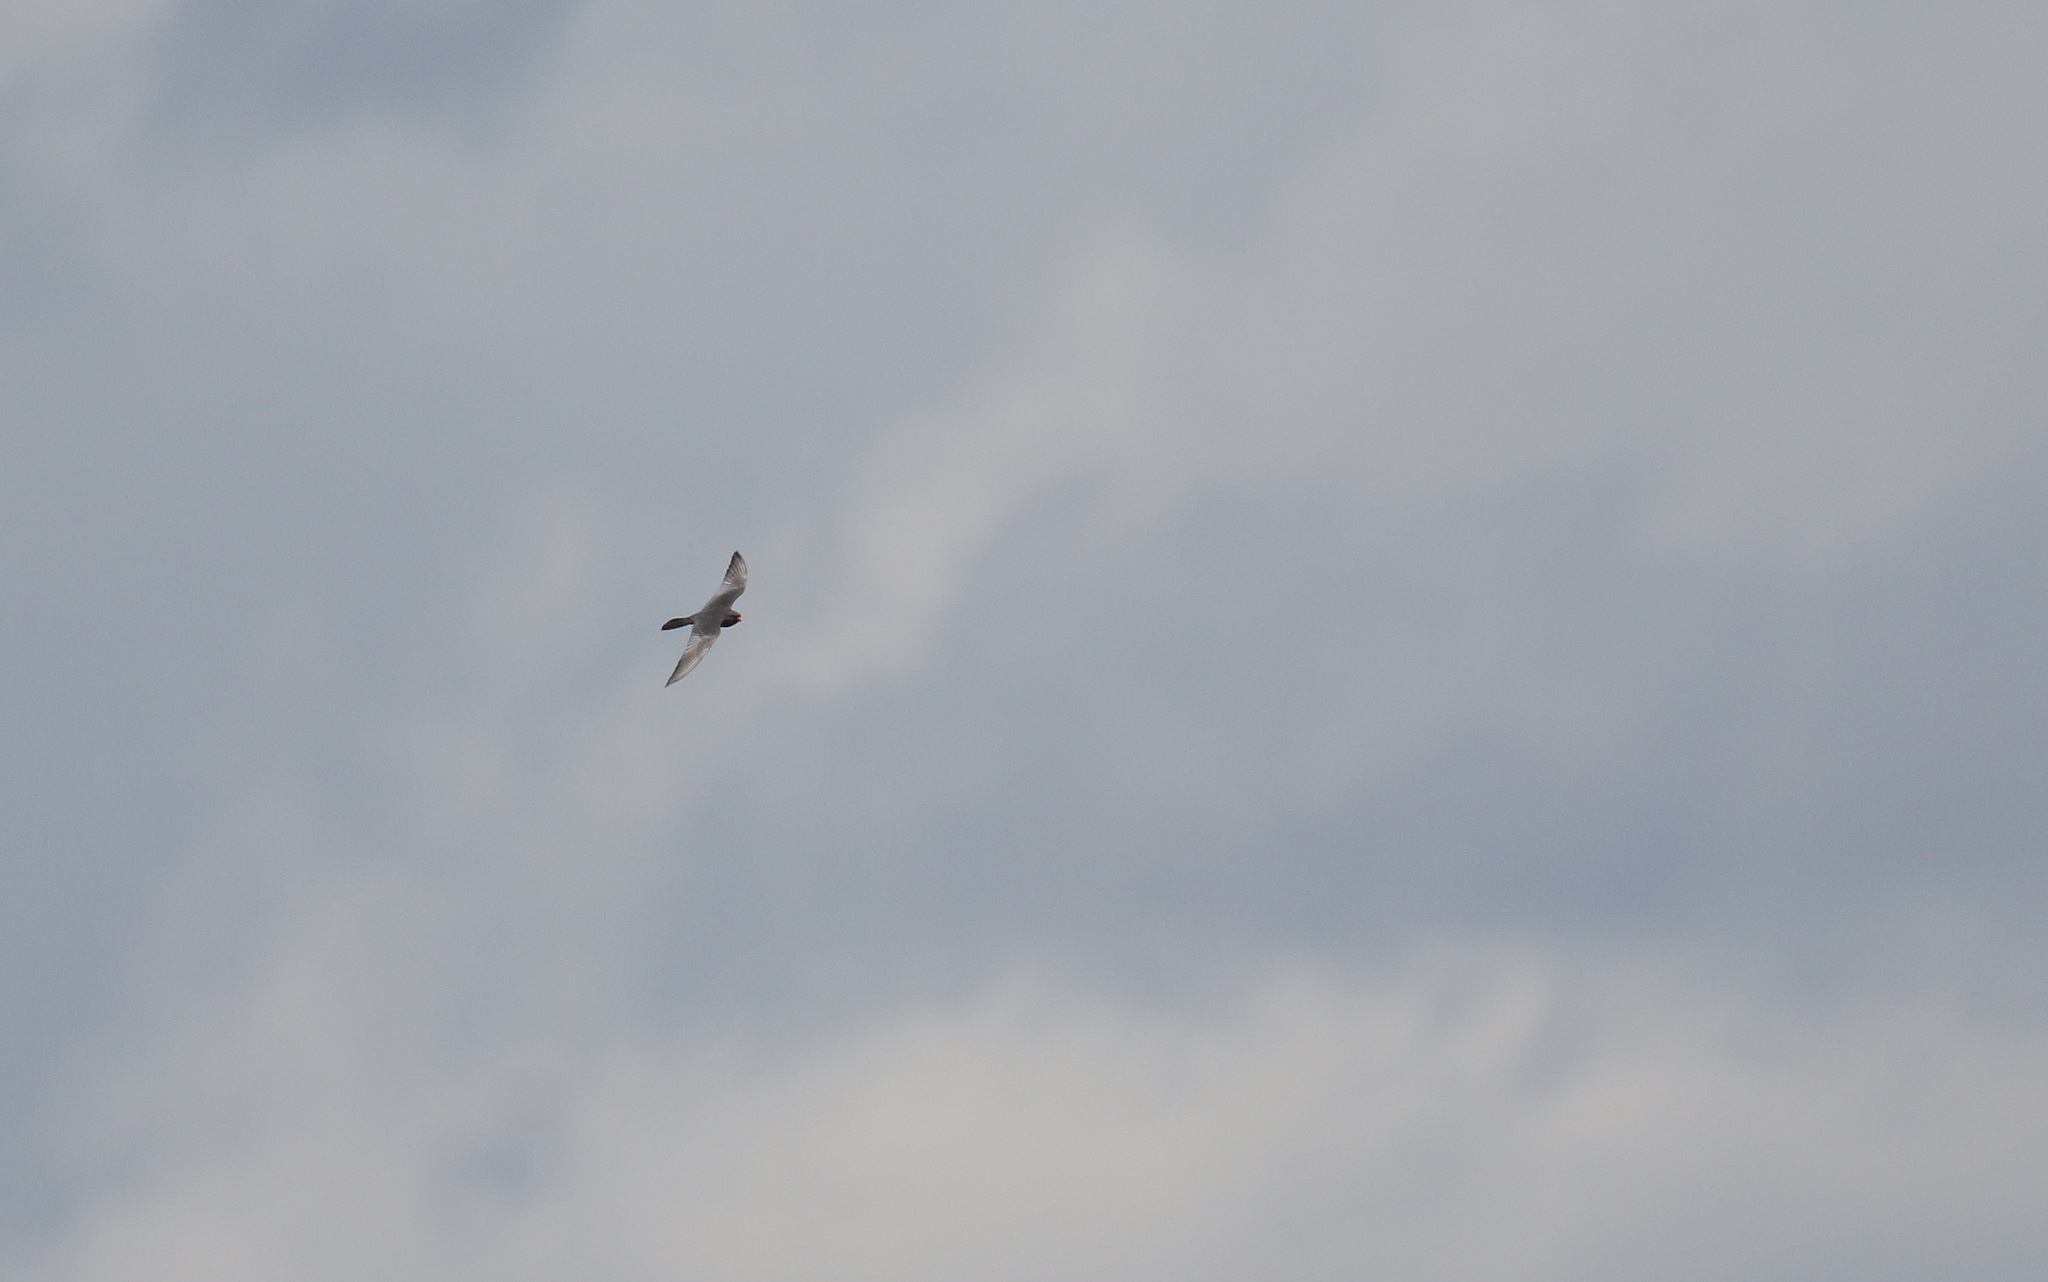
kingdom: Animalia
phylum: Chordata
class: Aves
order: Falconiformes
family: Falconidae
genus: Falco
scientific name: Falco vespertinus
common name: Red-footed falcon
